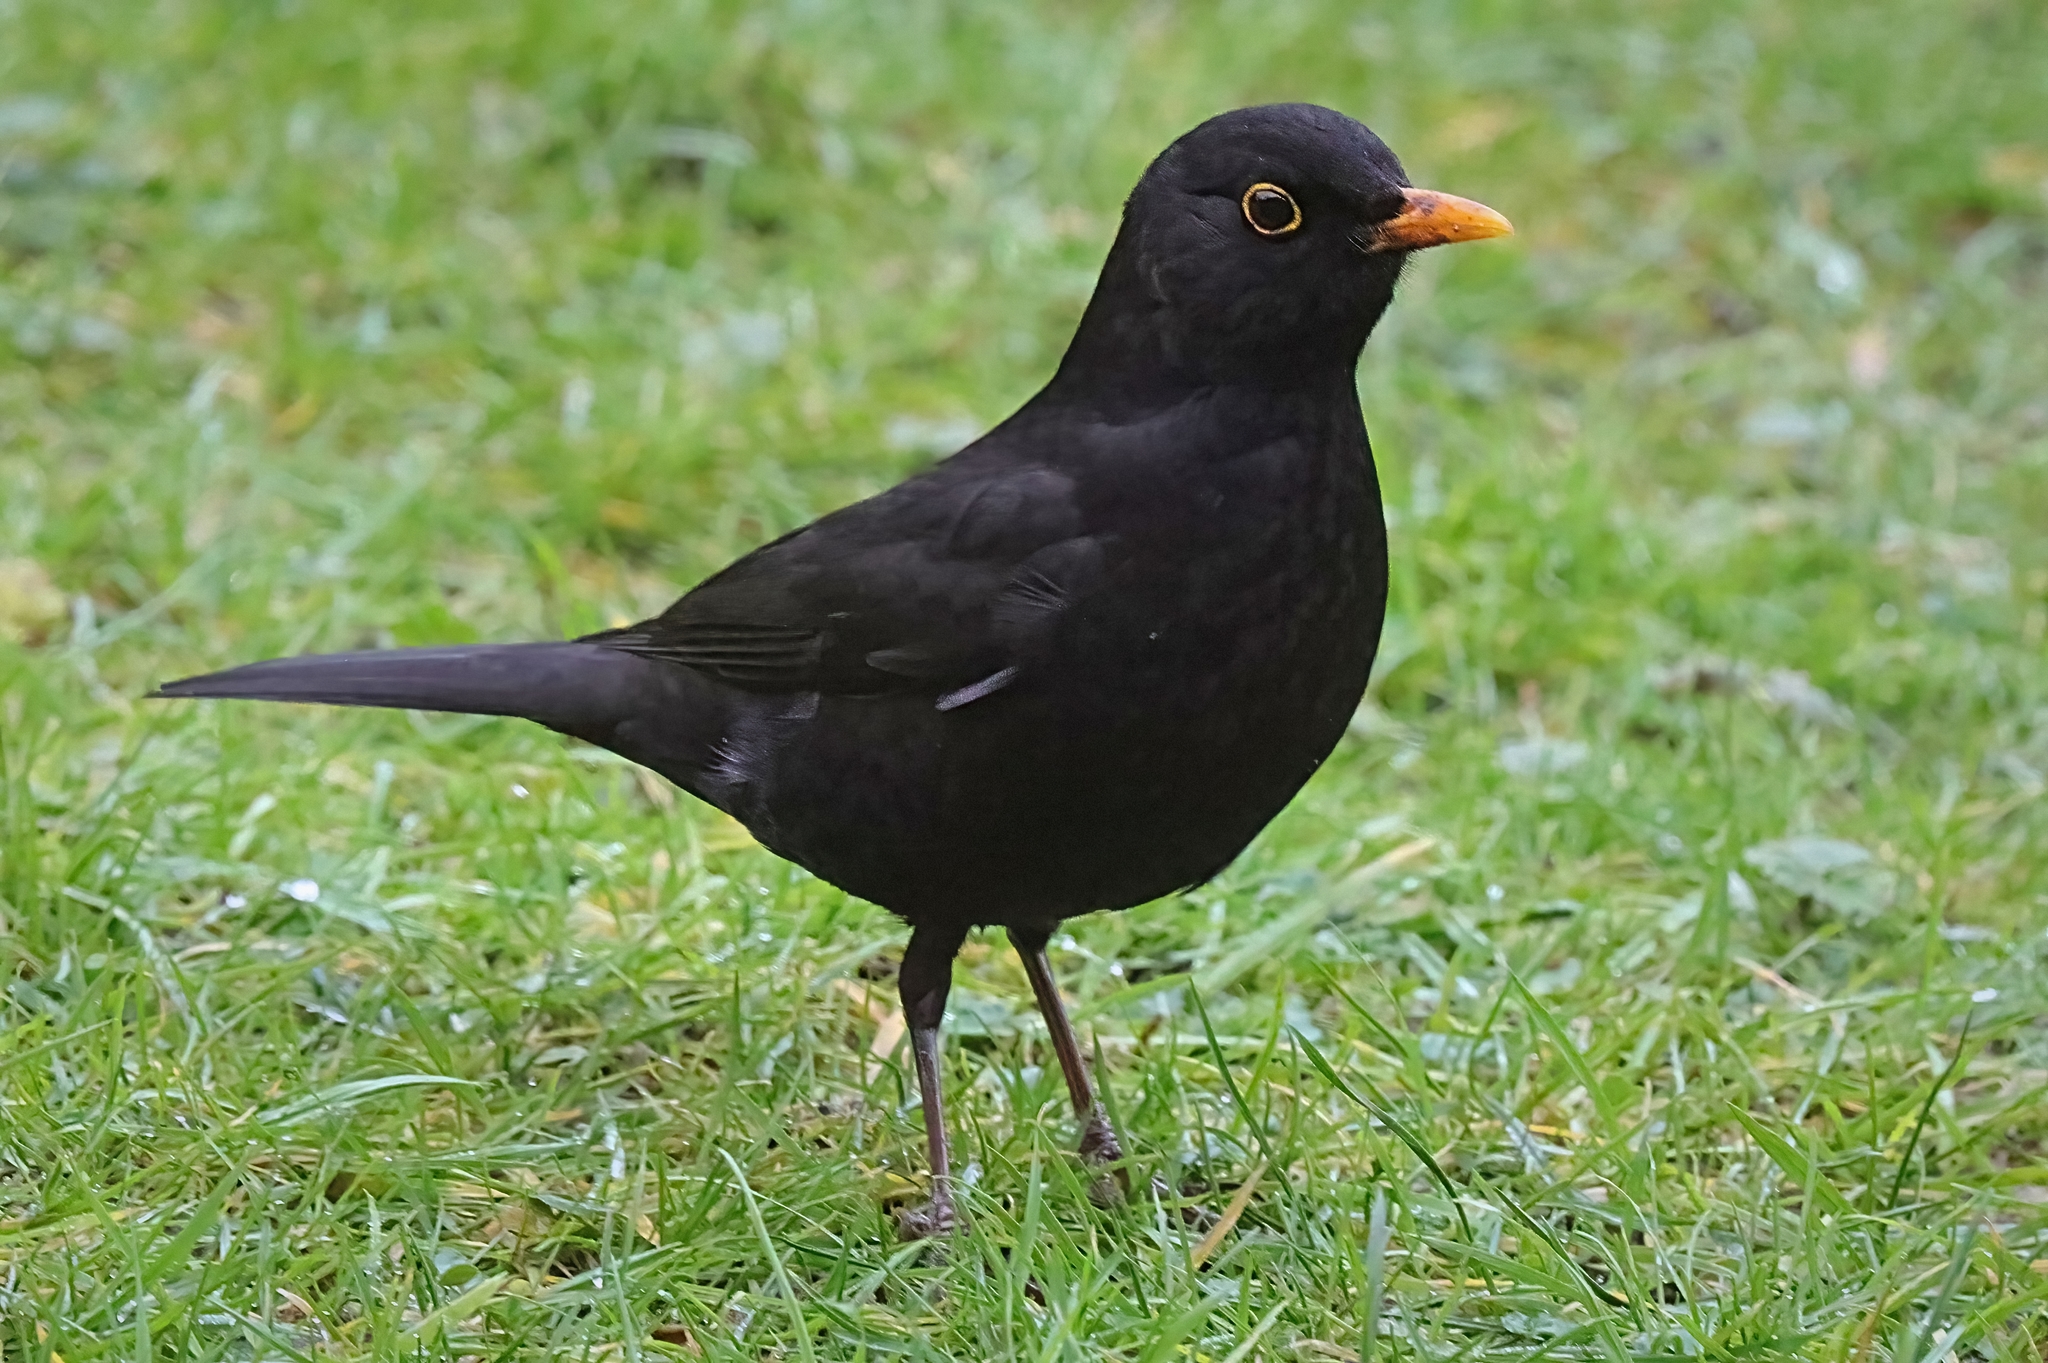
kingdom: Animalia
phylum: Chordata
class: Aves
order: Passeriformes
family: Turdidae
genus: Turdus
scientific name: Turdus merula
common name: Common blackbird
